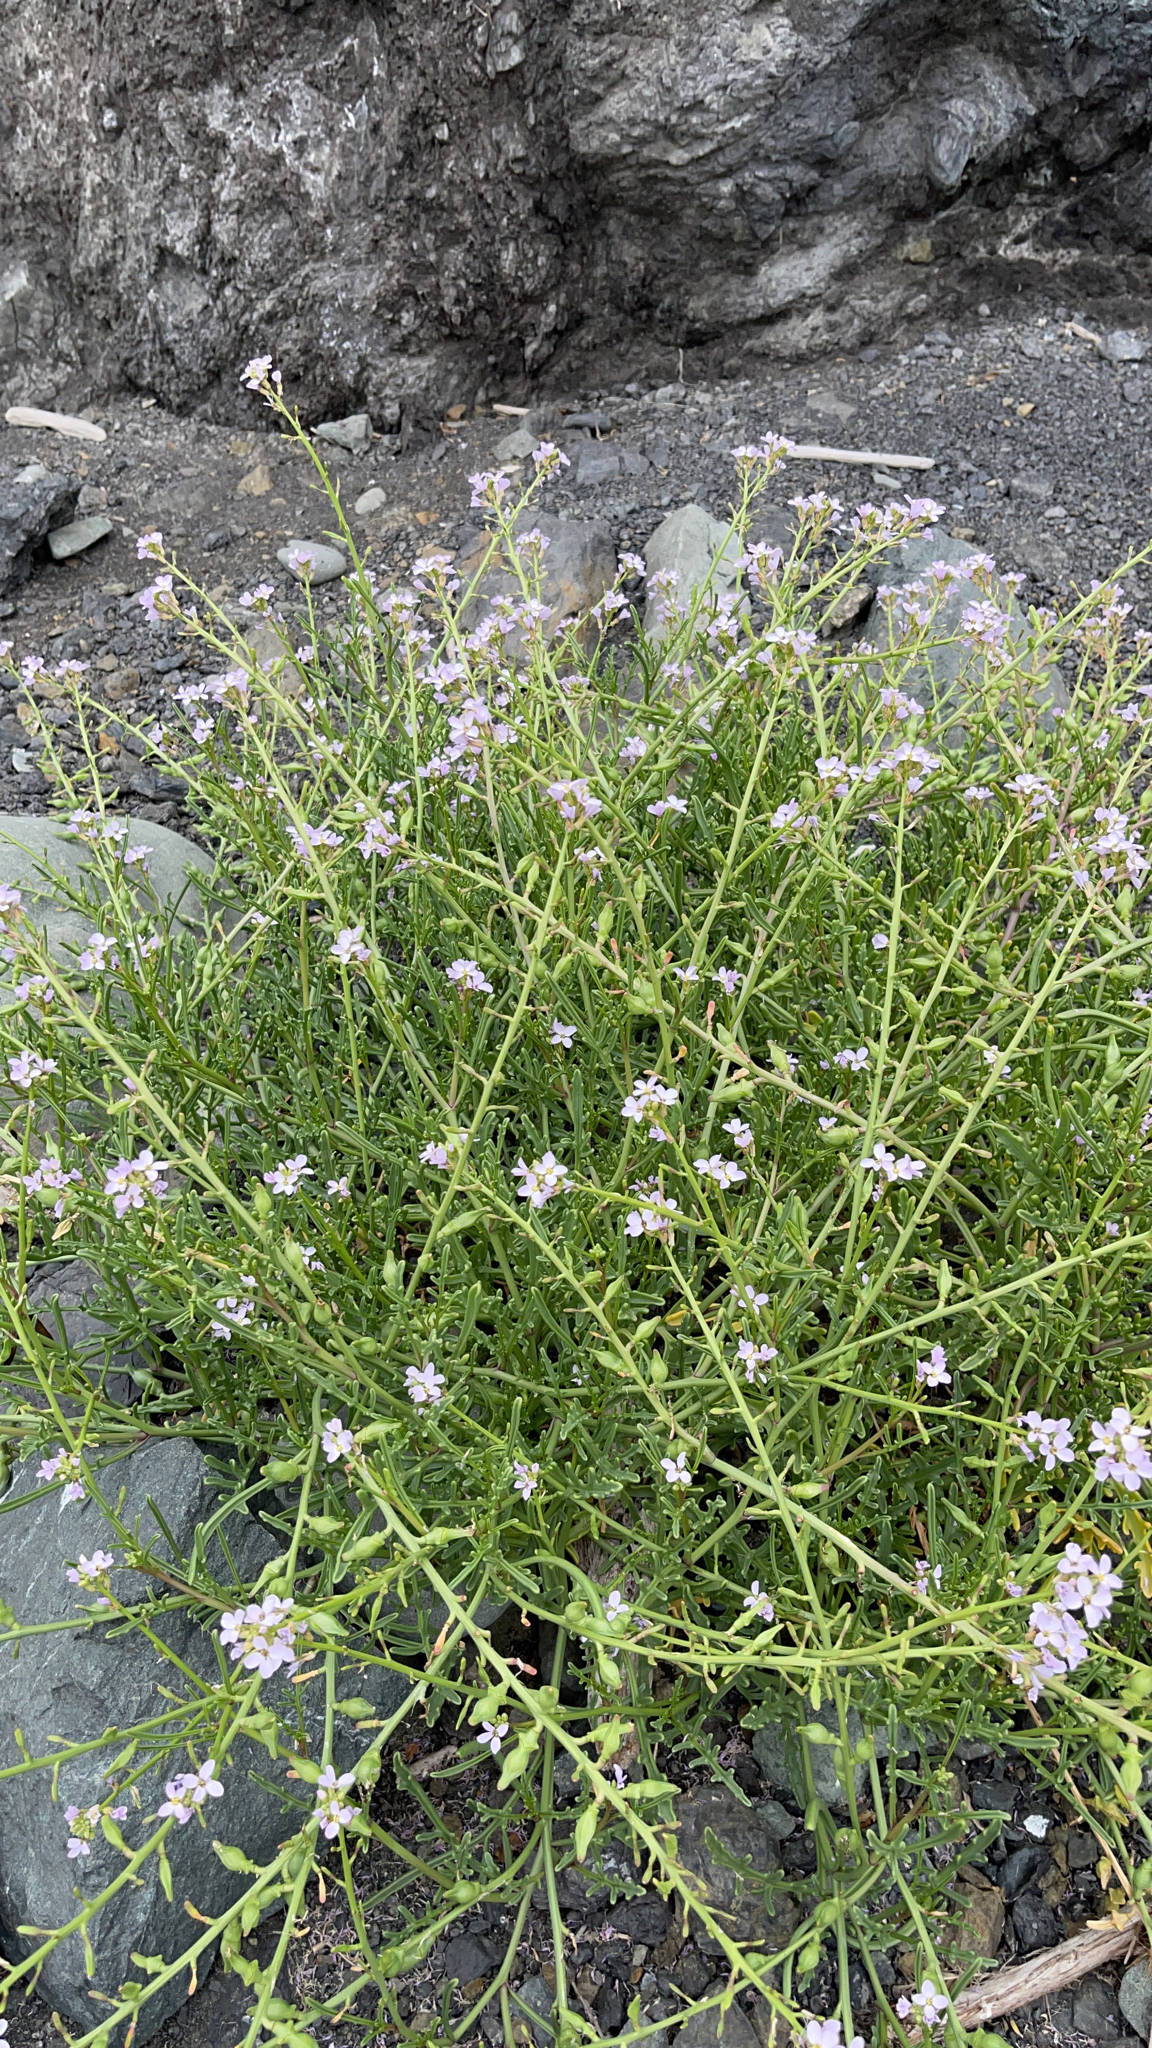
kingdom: Plantae
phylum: Tracheophyta
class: Magnoliopsida
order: Brassicales
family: Brassicaceae
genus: Cakile
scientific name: Cakile maritima
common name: Sea rocket
